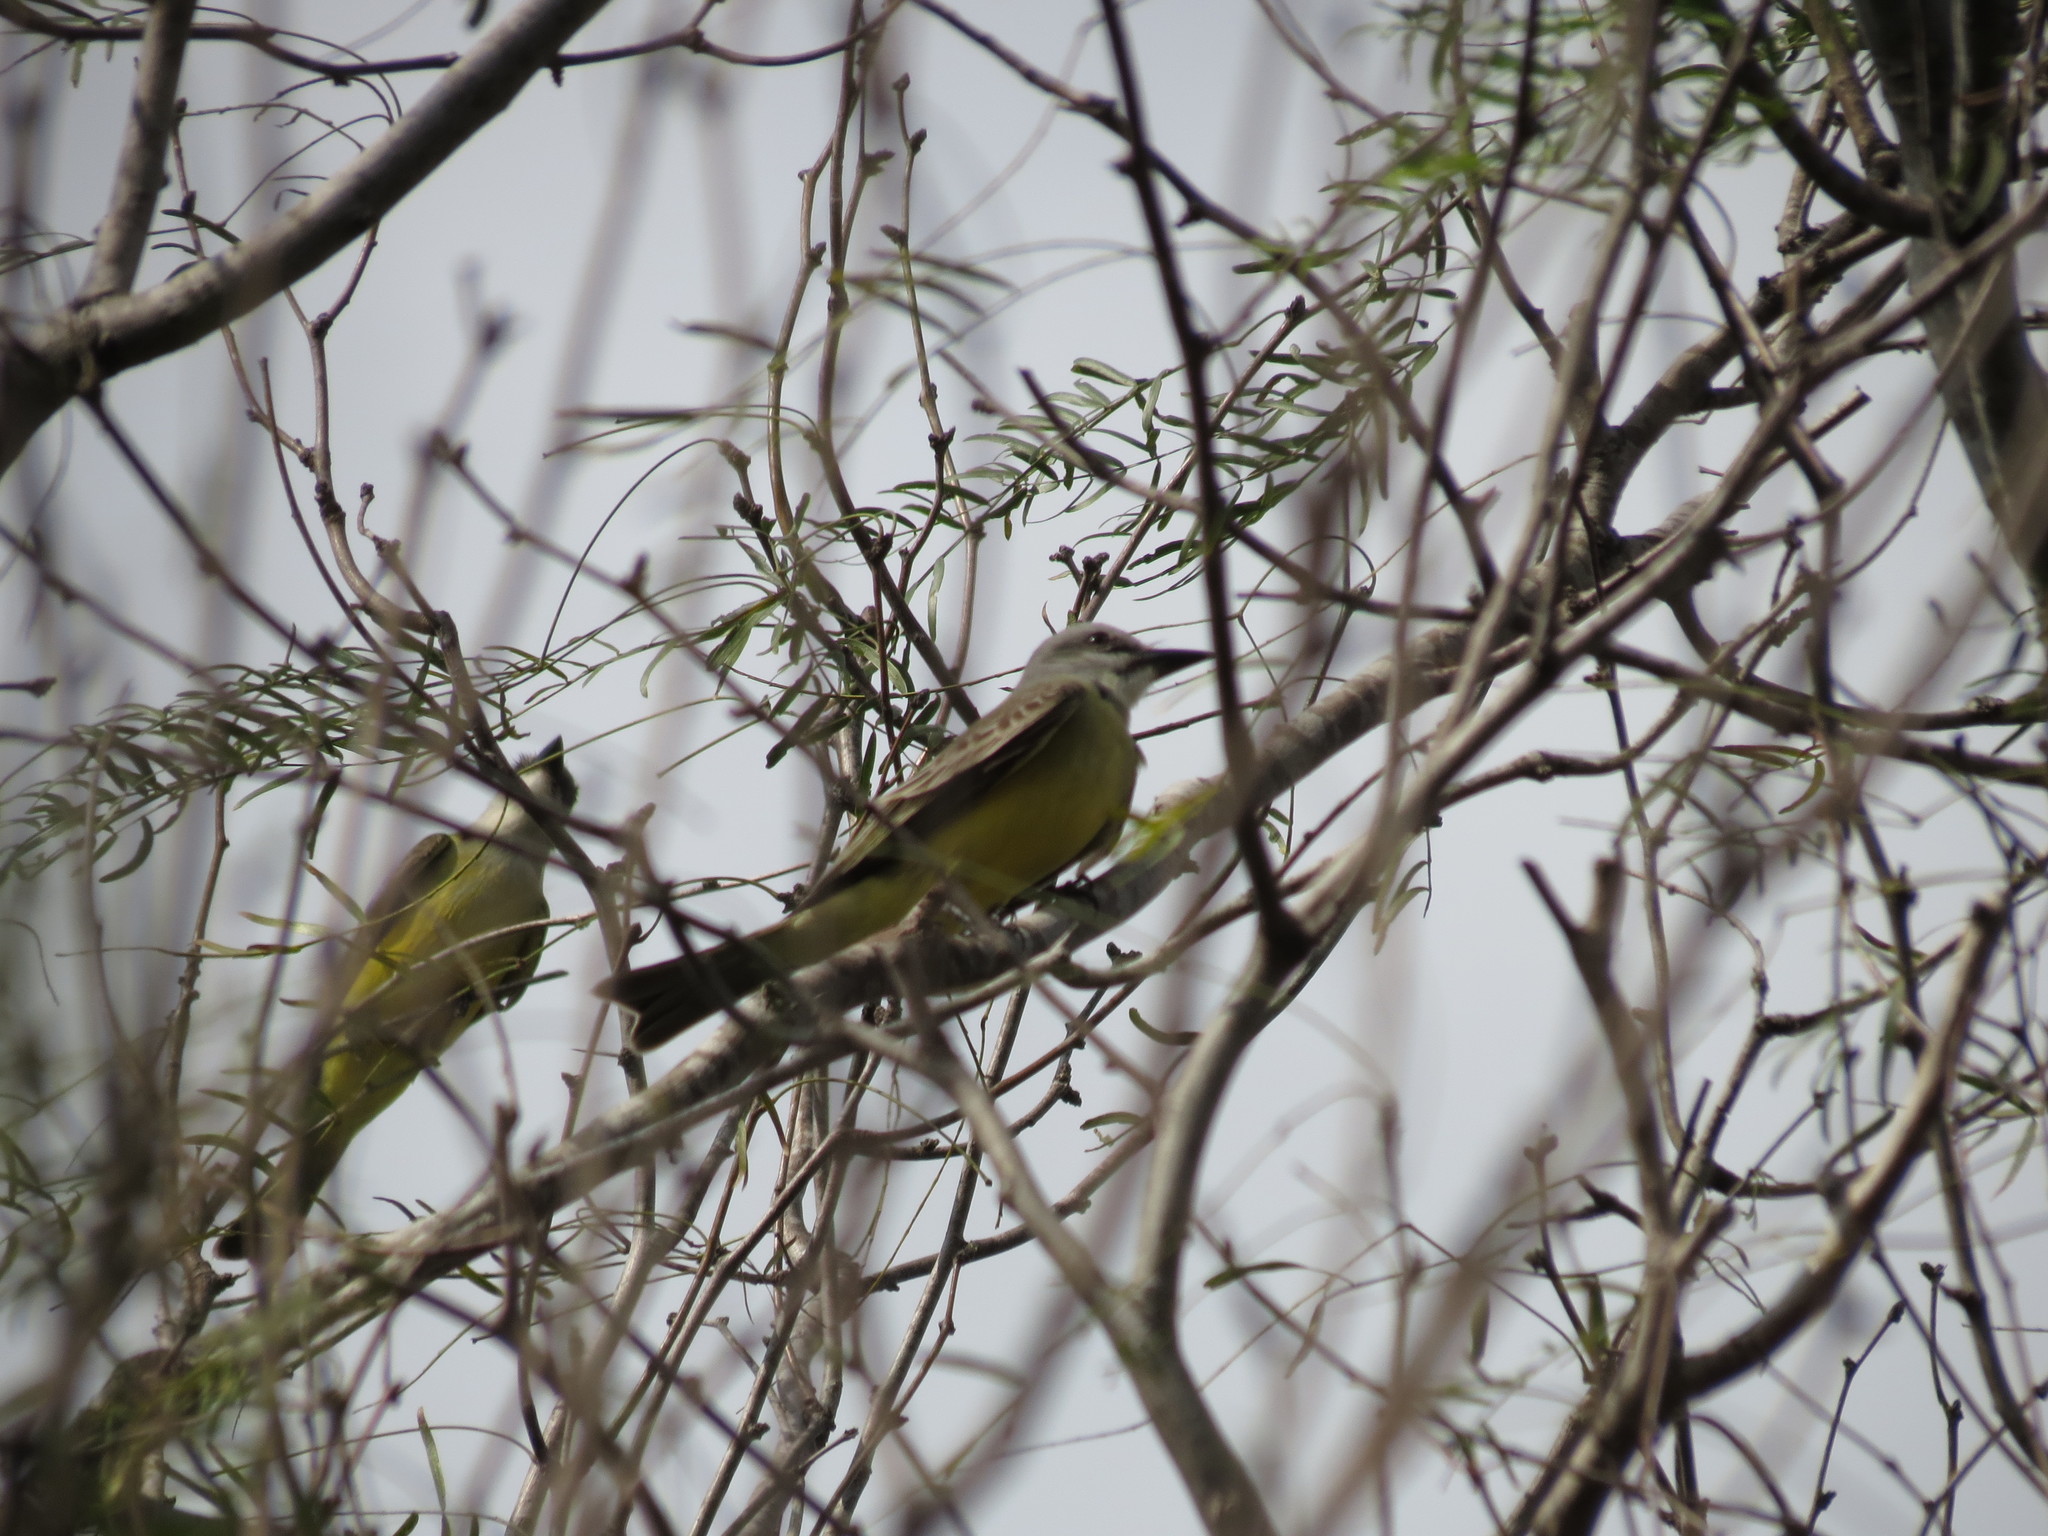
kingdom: Animalia
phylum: Chordata
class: Aves
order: Passeriformes
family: Tyrannidae
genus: Tyrannus
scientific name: Tyrannus melancholicus
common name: Tropical kingbird
